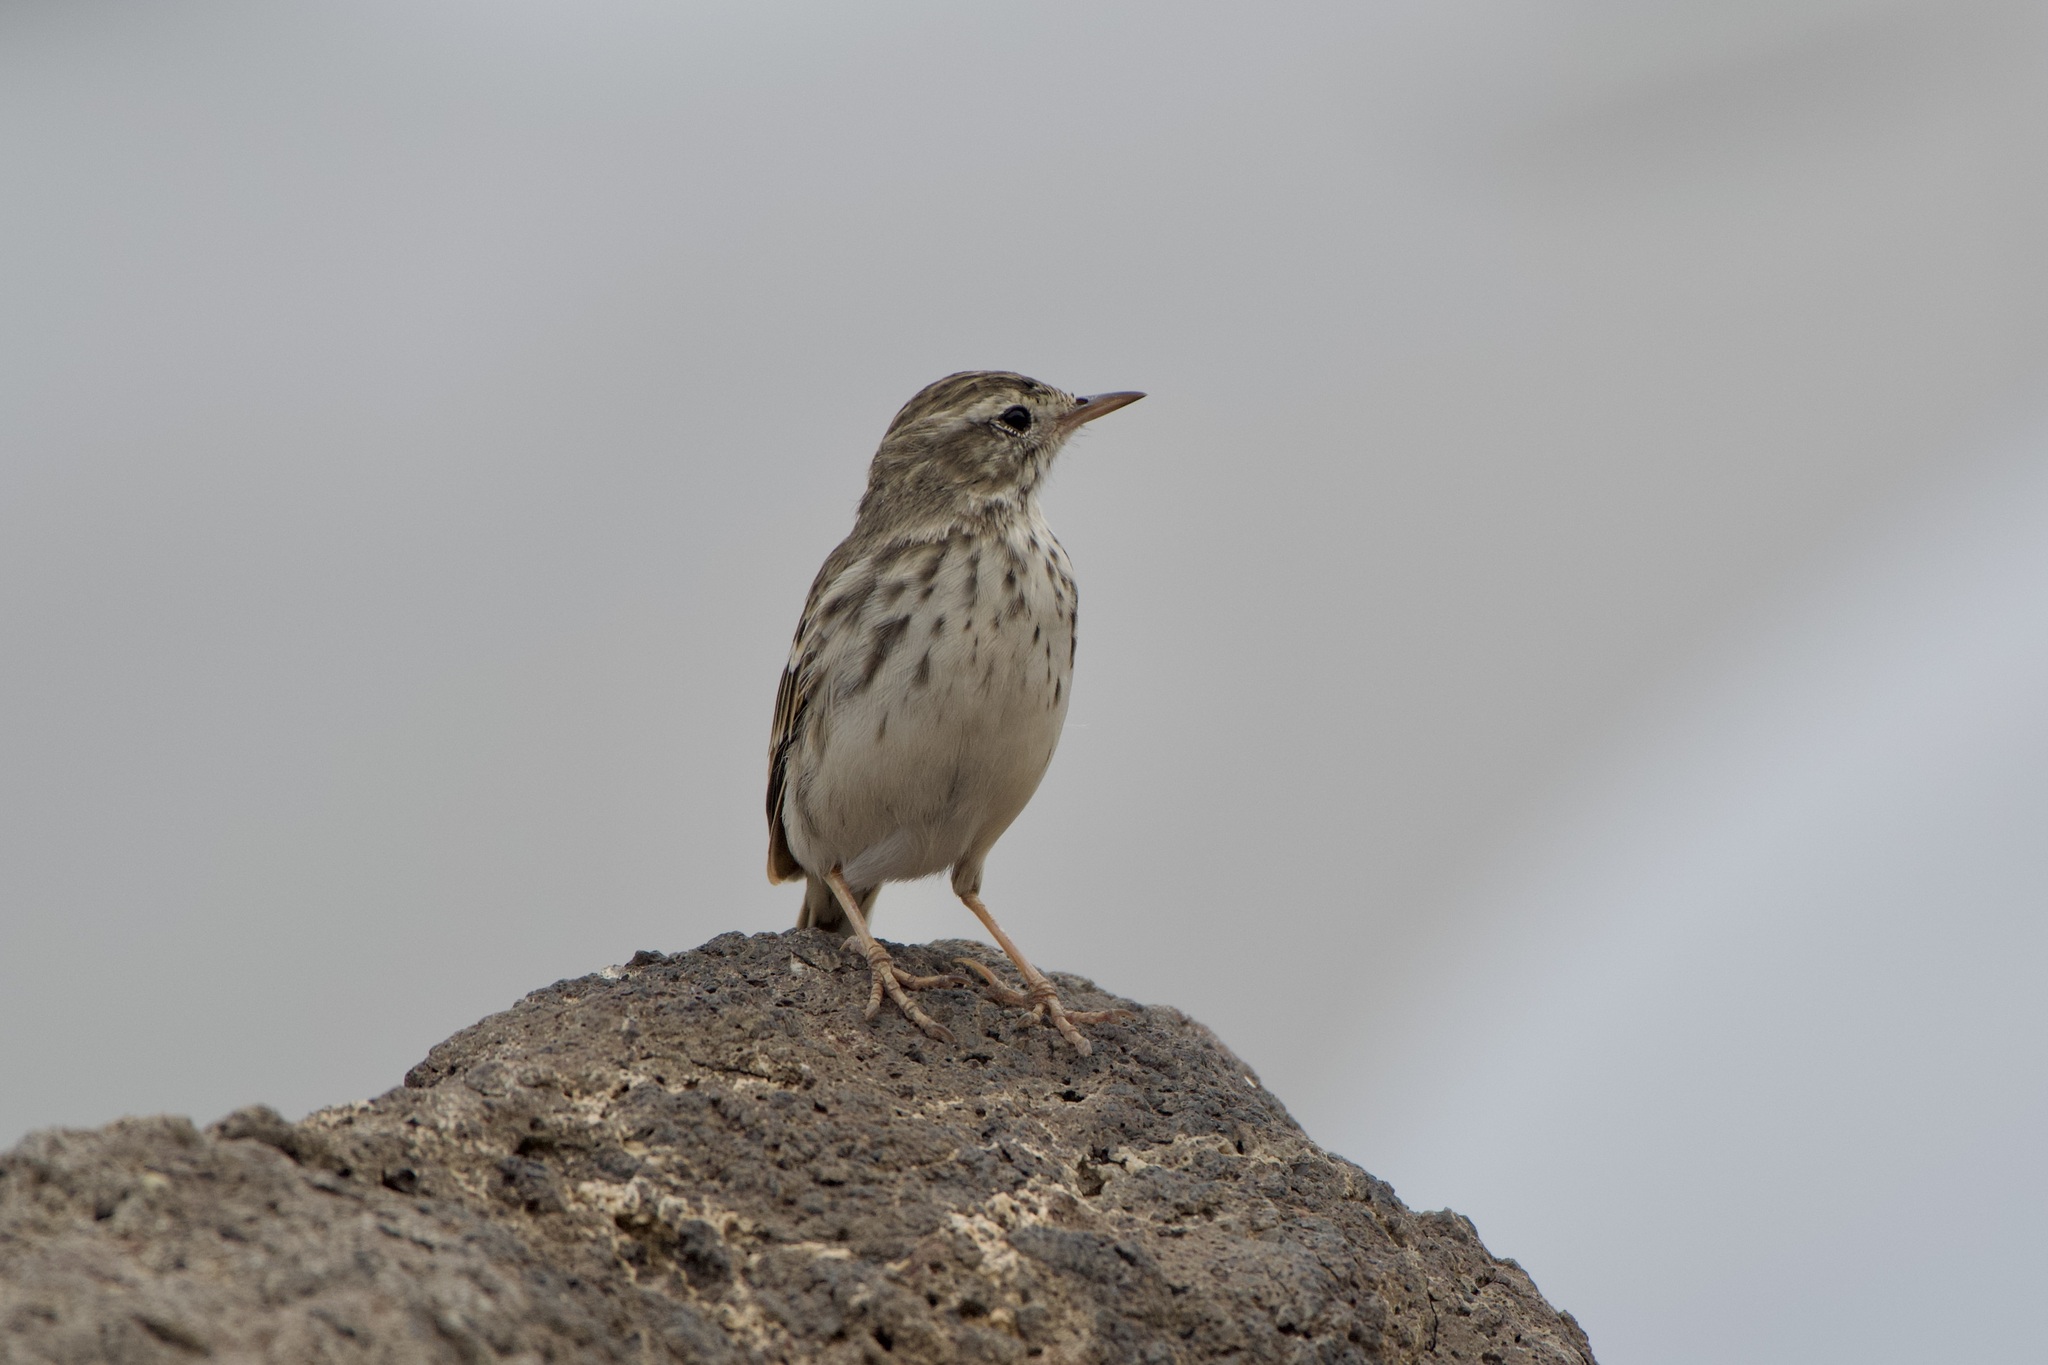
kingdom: Animalia
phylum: Chordata
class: Aves
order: Passeriformes
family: Motacillidae
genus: Anthus
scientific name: Anthus berthelotii
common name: Berthelot's pipit
